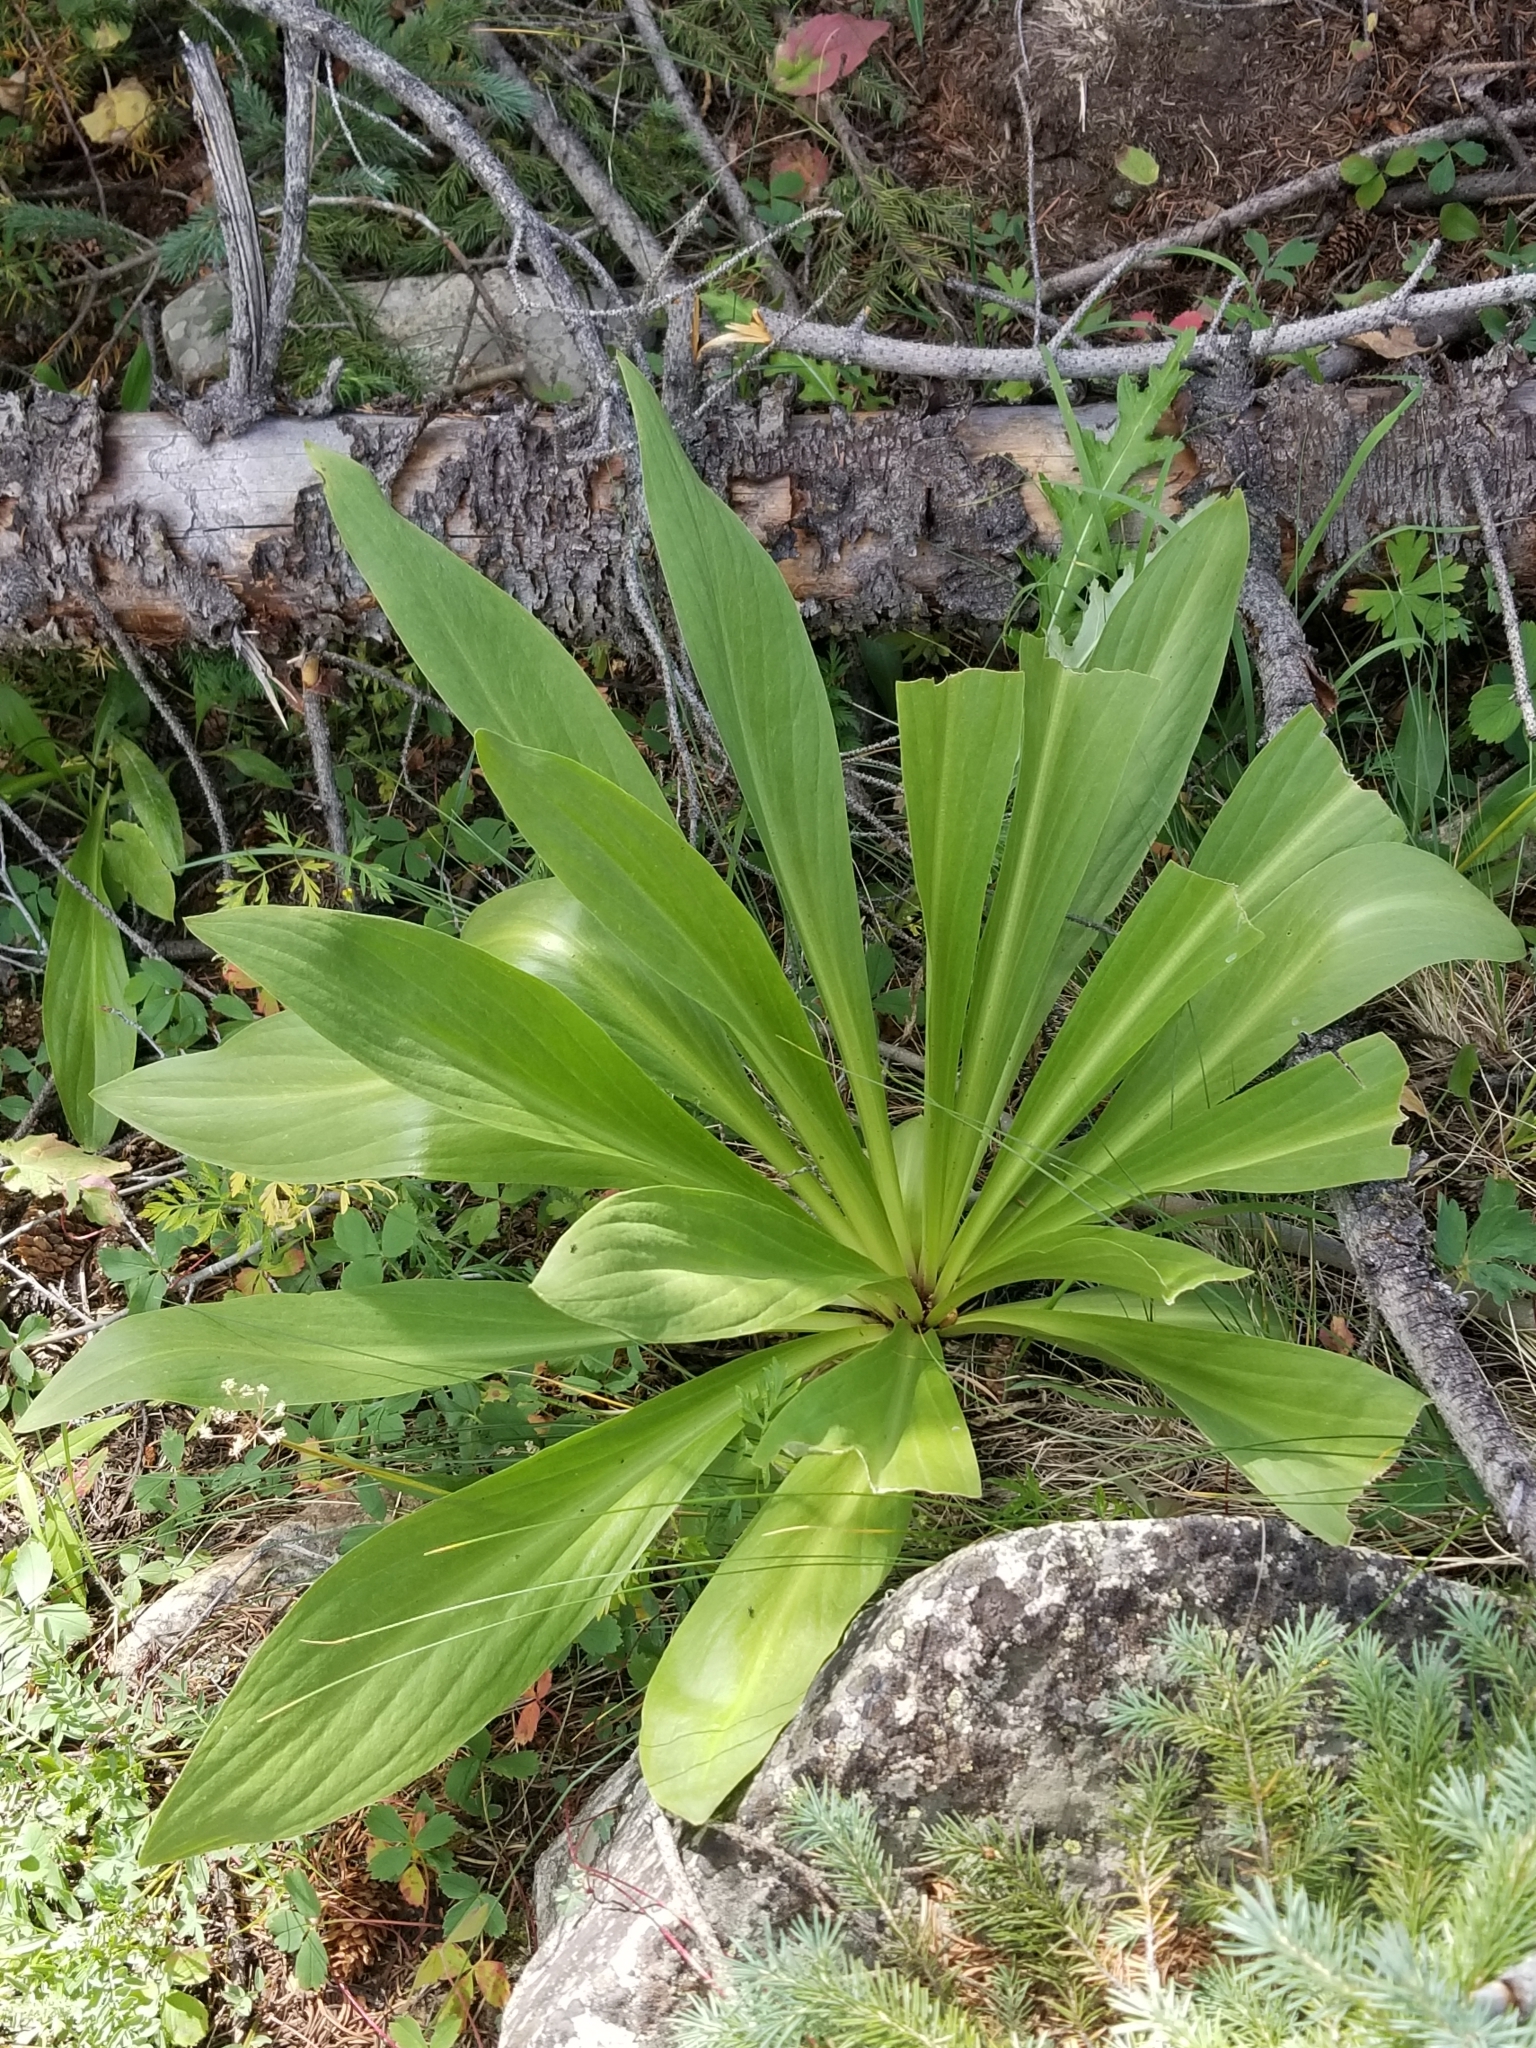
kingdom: Plantae
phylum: Tracheophyta
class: Magnoliopsida
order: Gentianales
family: Gentianaceae
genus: Frasera
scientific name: Frasera speciosa
